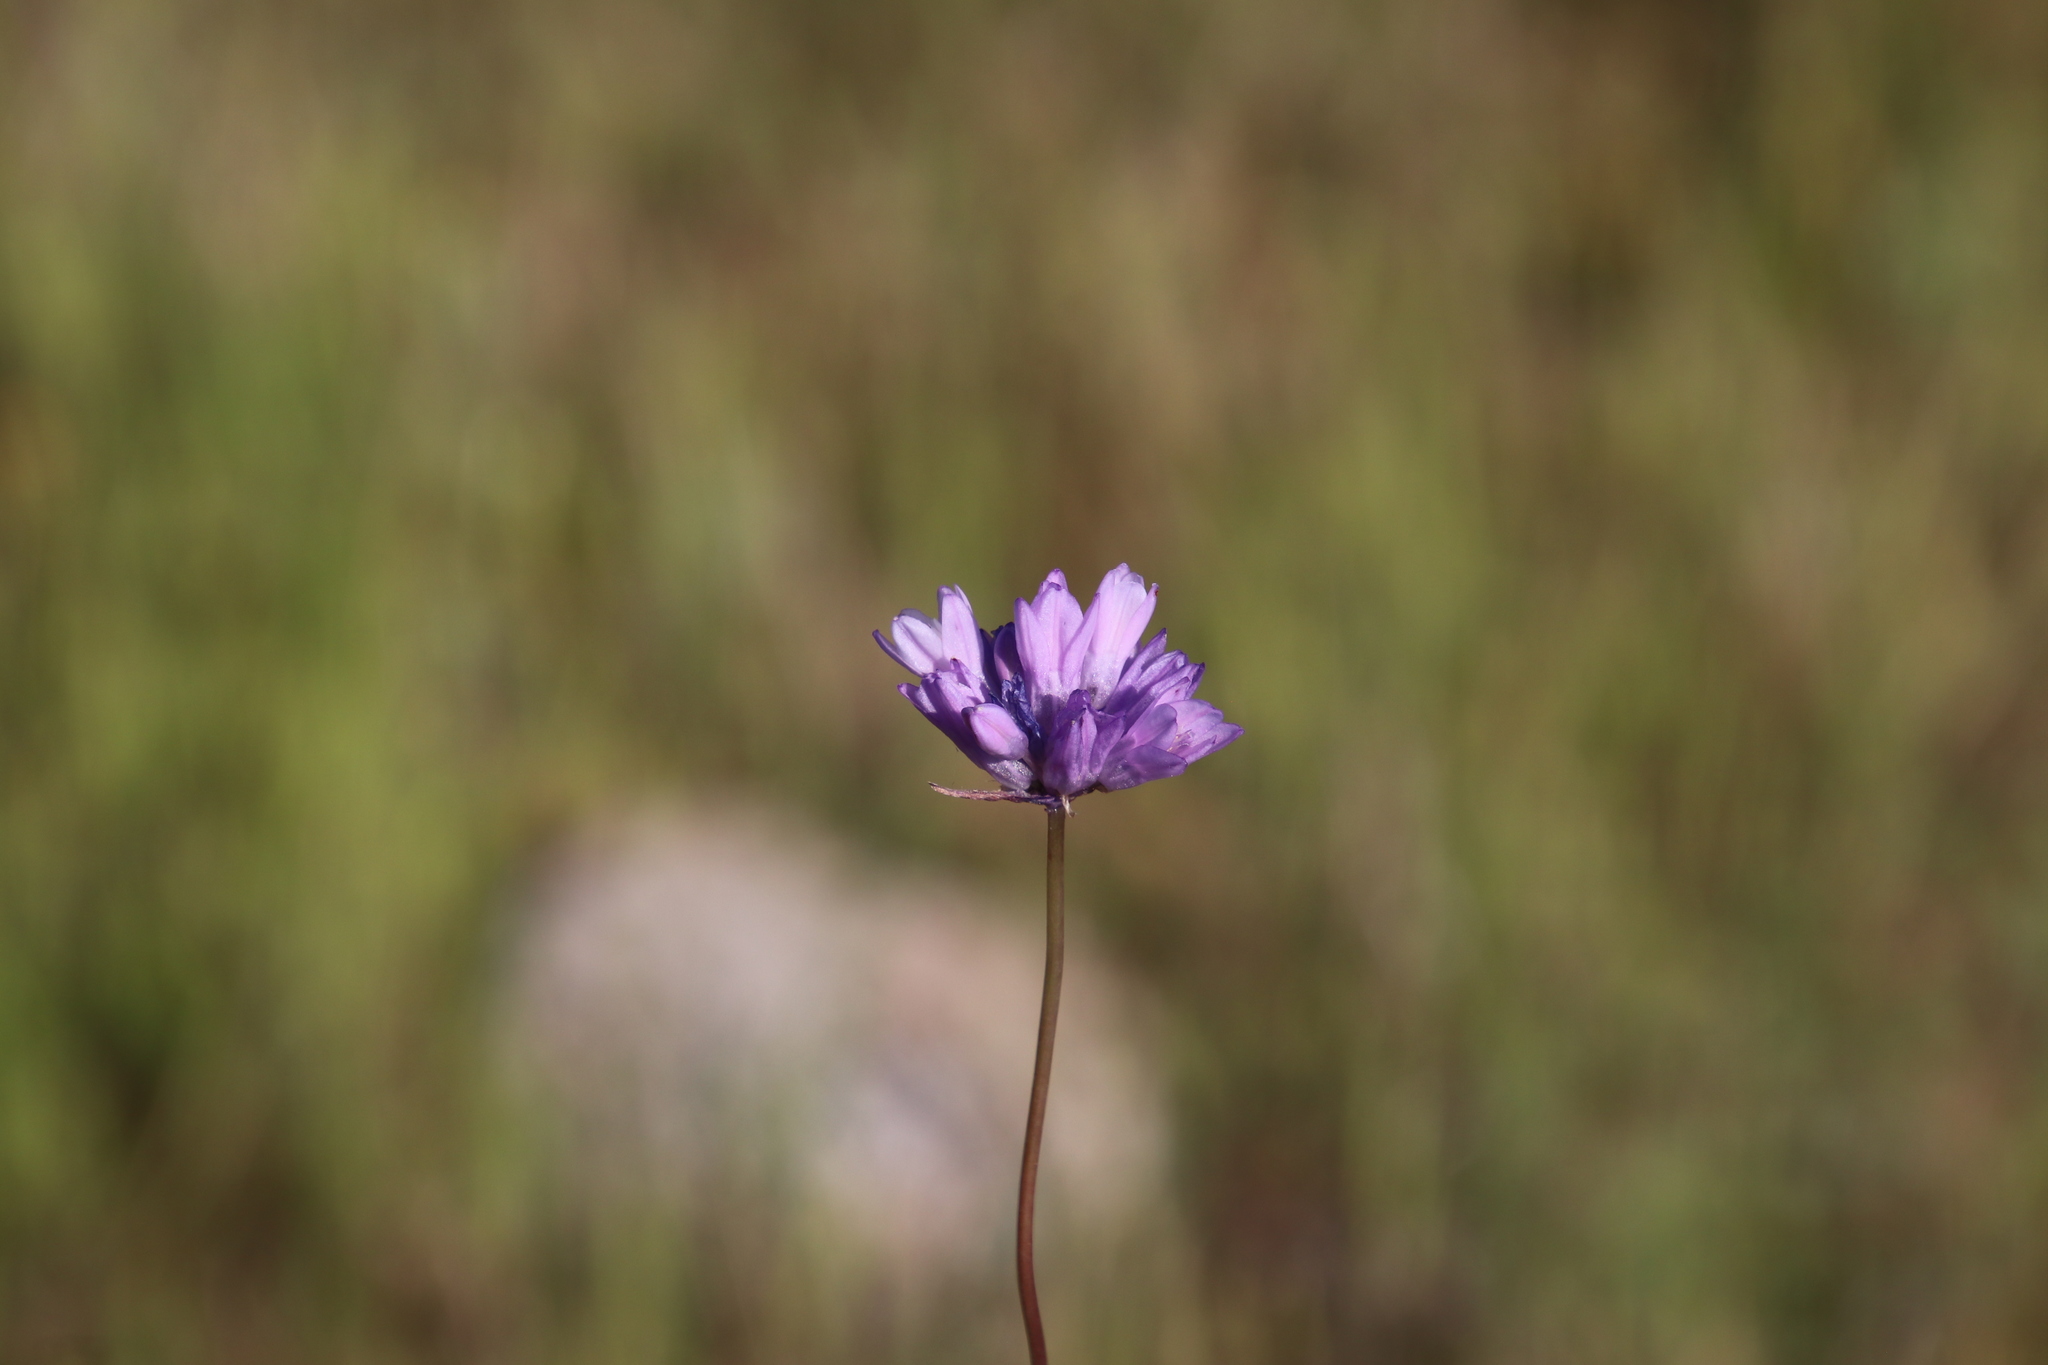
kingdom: Plantae
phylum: Tracheophyta
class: Liliopsida
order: Asparagales
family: Asparagaceae
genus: Dipterostemon
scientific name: Dipterostemon capitatus
